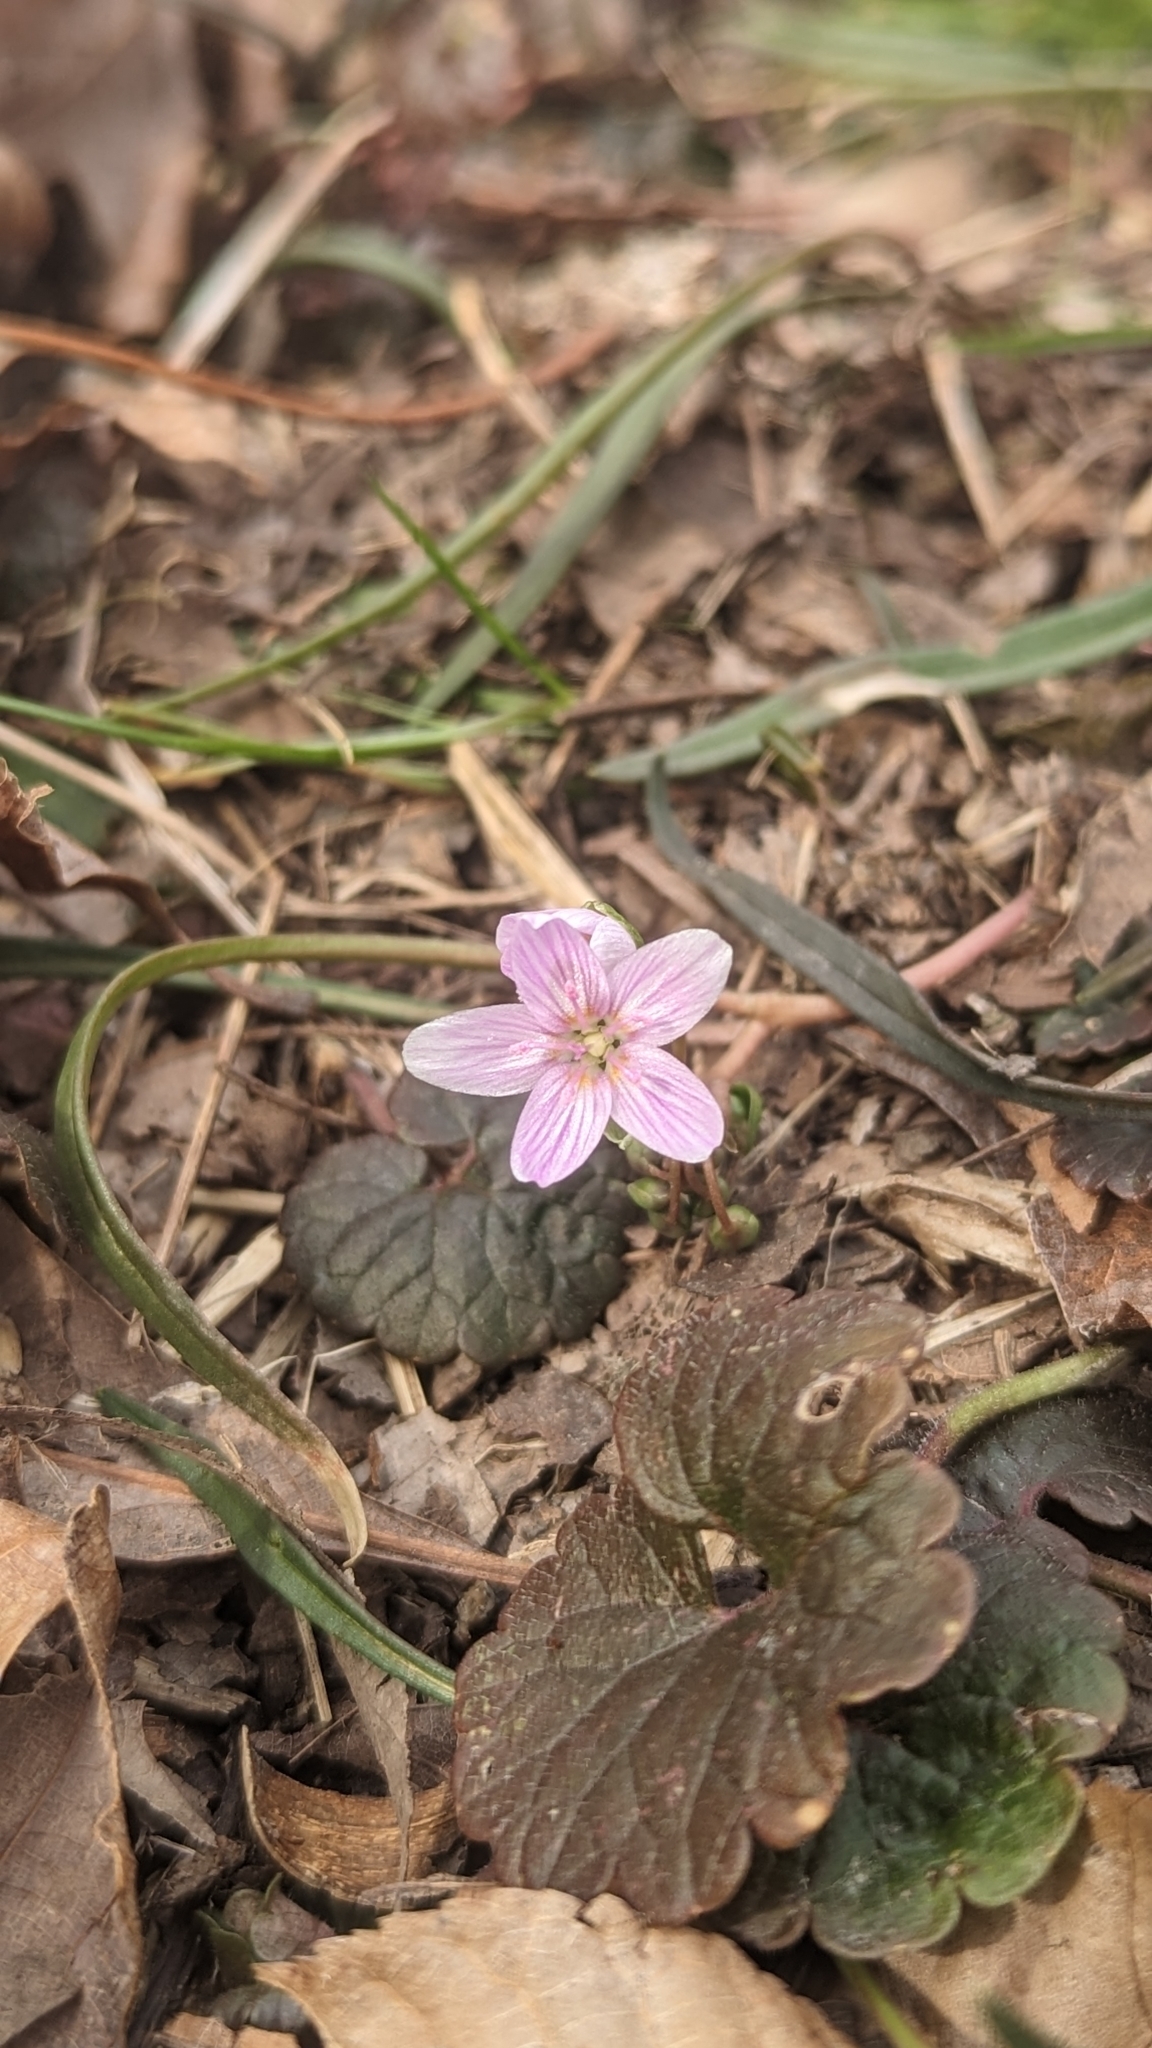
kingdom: Plantae
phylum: Tracheophyta
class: Magnoliopsida
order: Caryophyllales
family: Montiaceae
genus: Claytonia
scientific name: Claytonia virginica
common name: Virginia springbeauty
